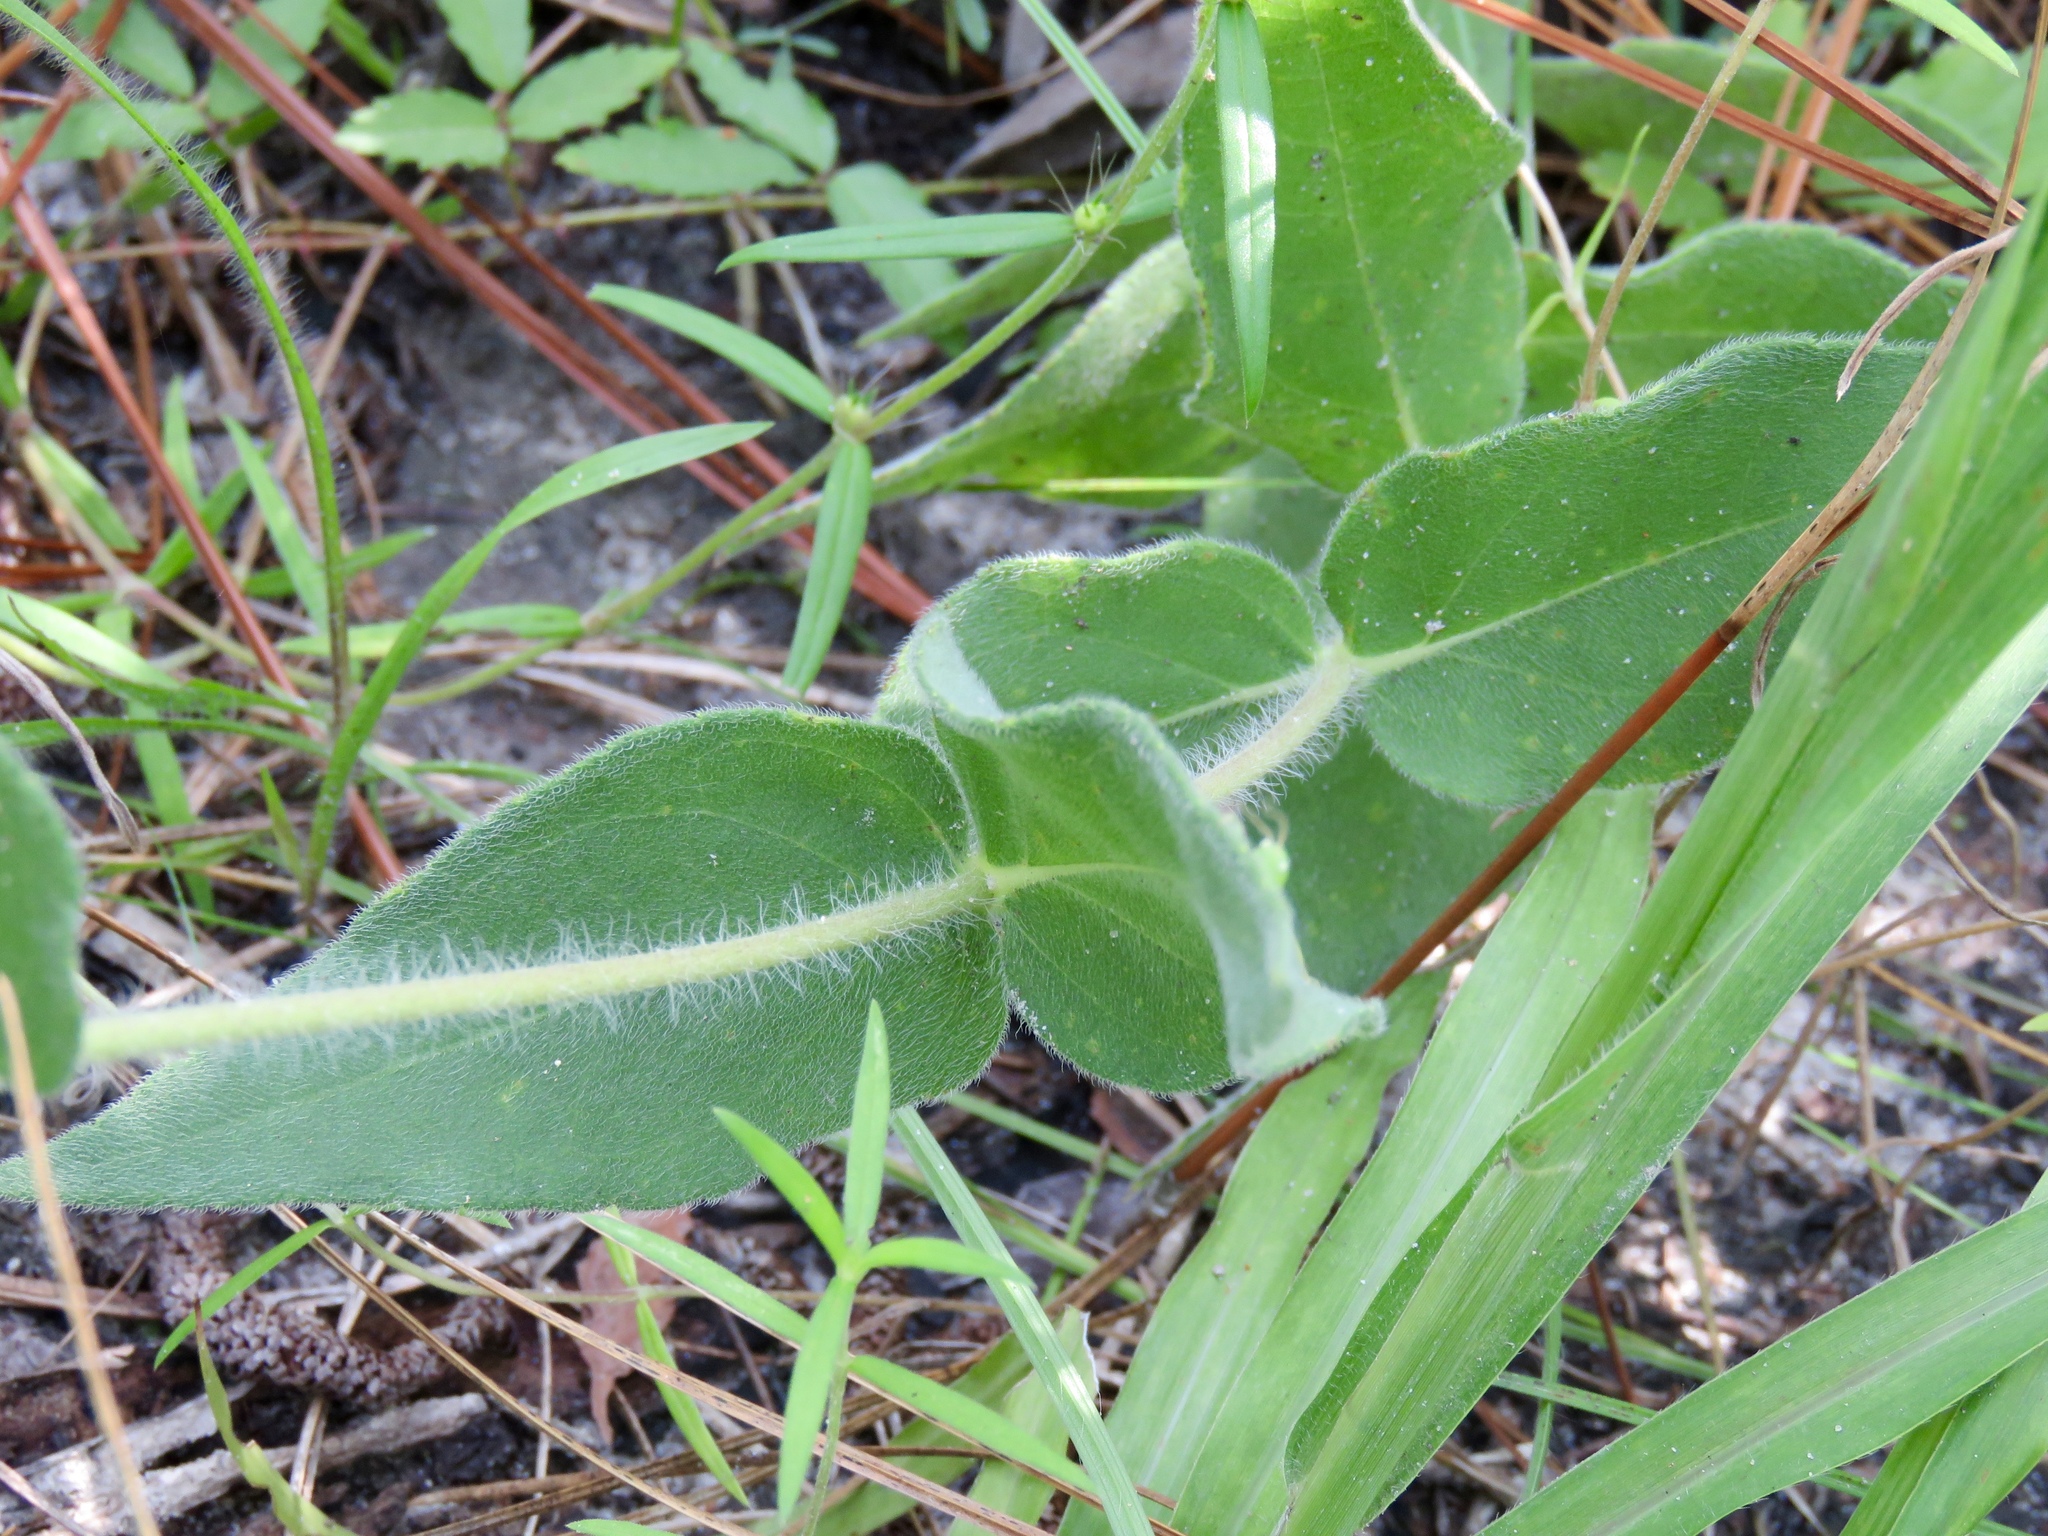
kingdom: Plantae
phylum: Tracheophyta
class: Magnoliopsida
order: Asterales
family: Asteraceae
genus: Helianthus
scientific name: Helianthus mollis
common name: Ashy sunflower
